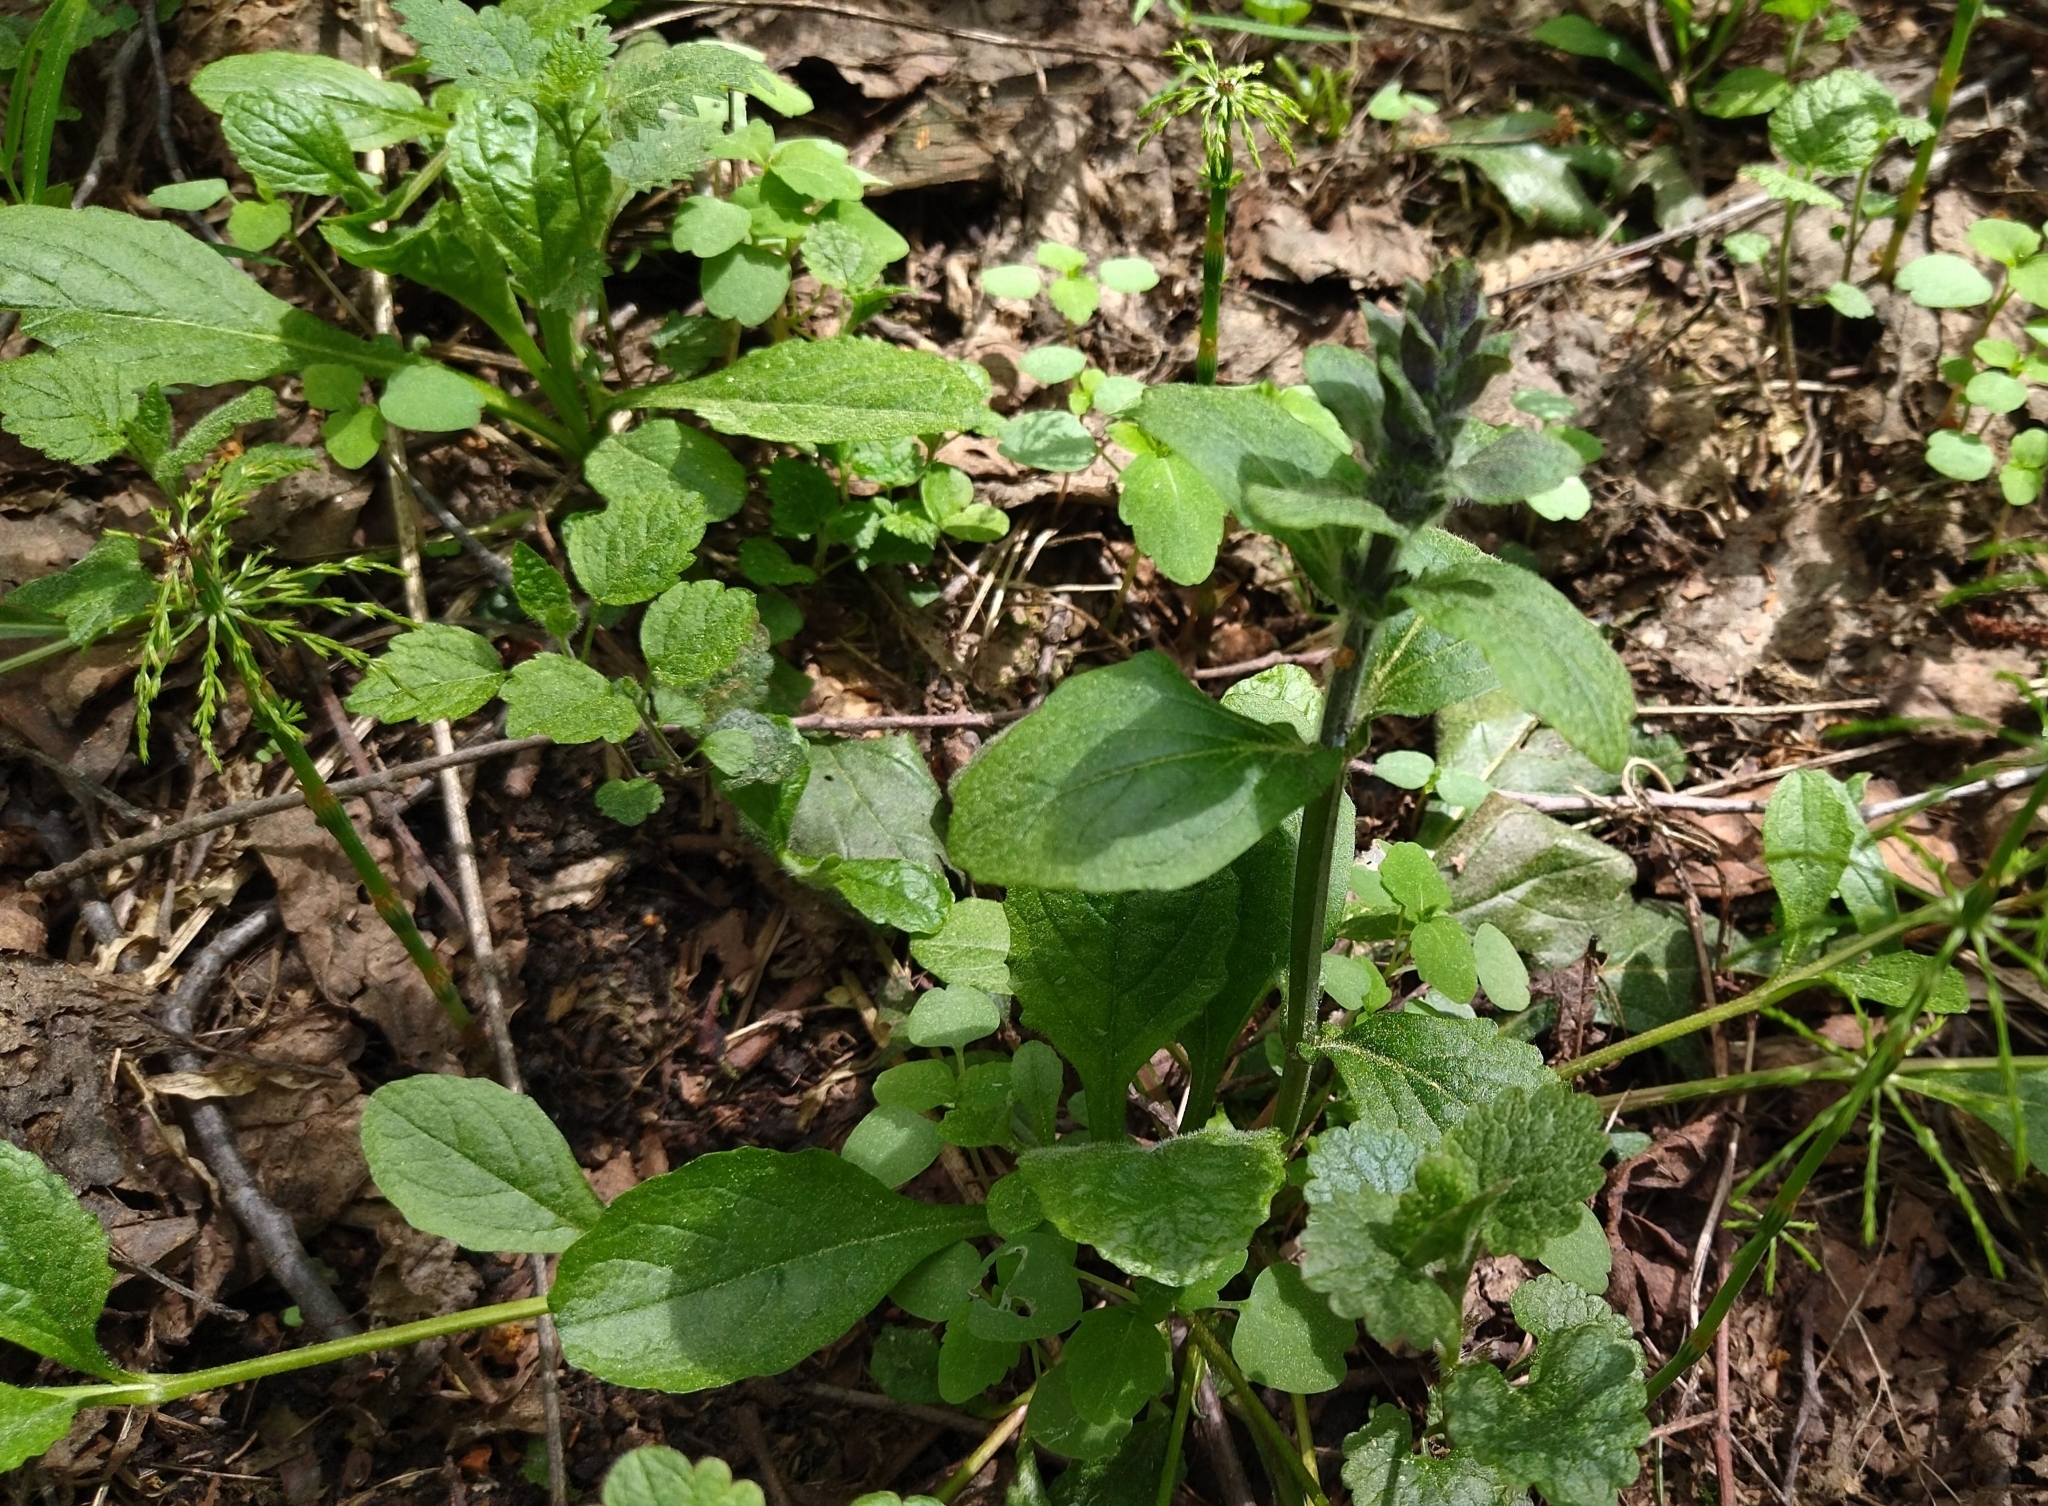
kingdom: Plantae
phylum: Tracheophyta
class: Magnoliopsida
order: Lamiales
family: Lamiaceae
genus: Ajuga
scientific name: Ajuga reptans
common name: Bugle
